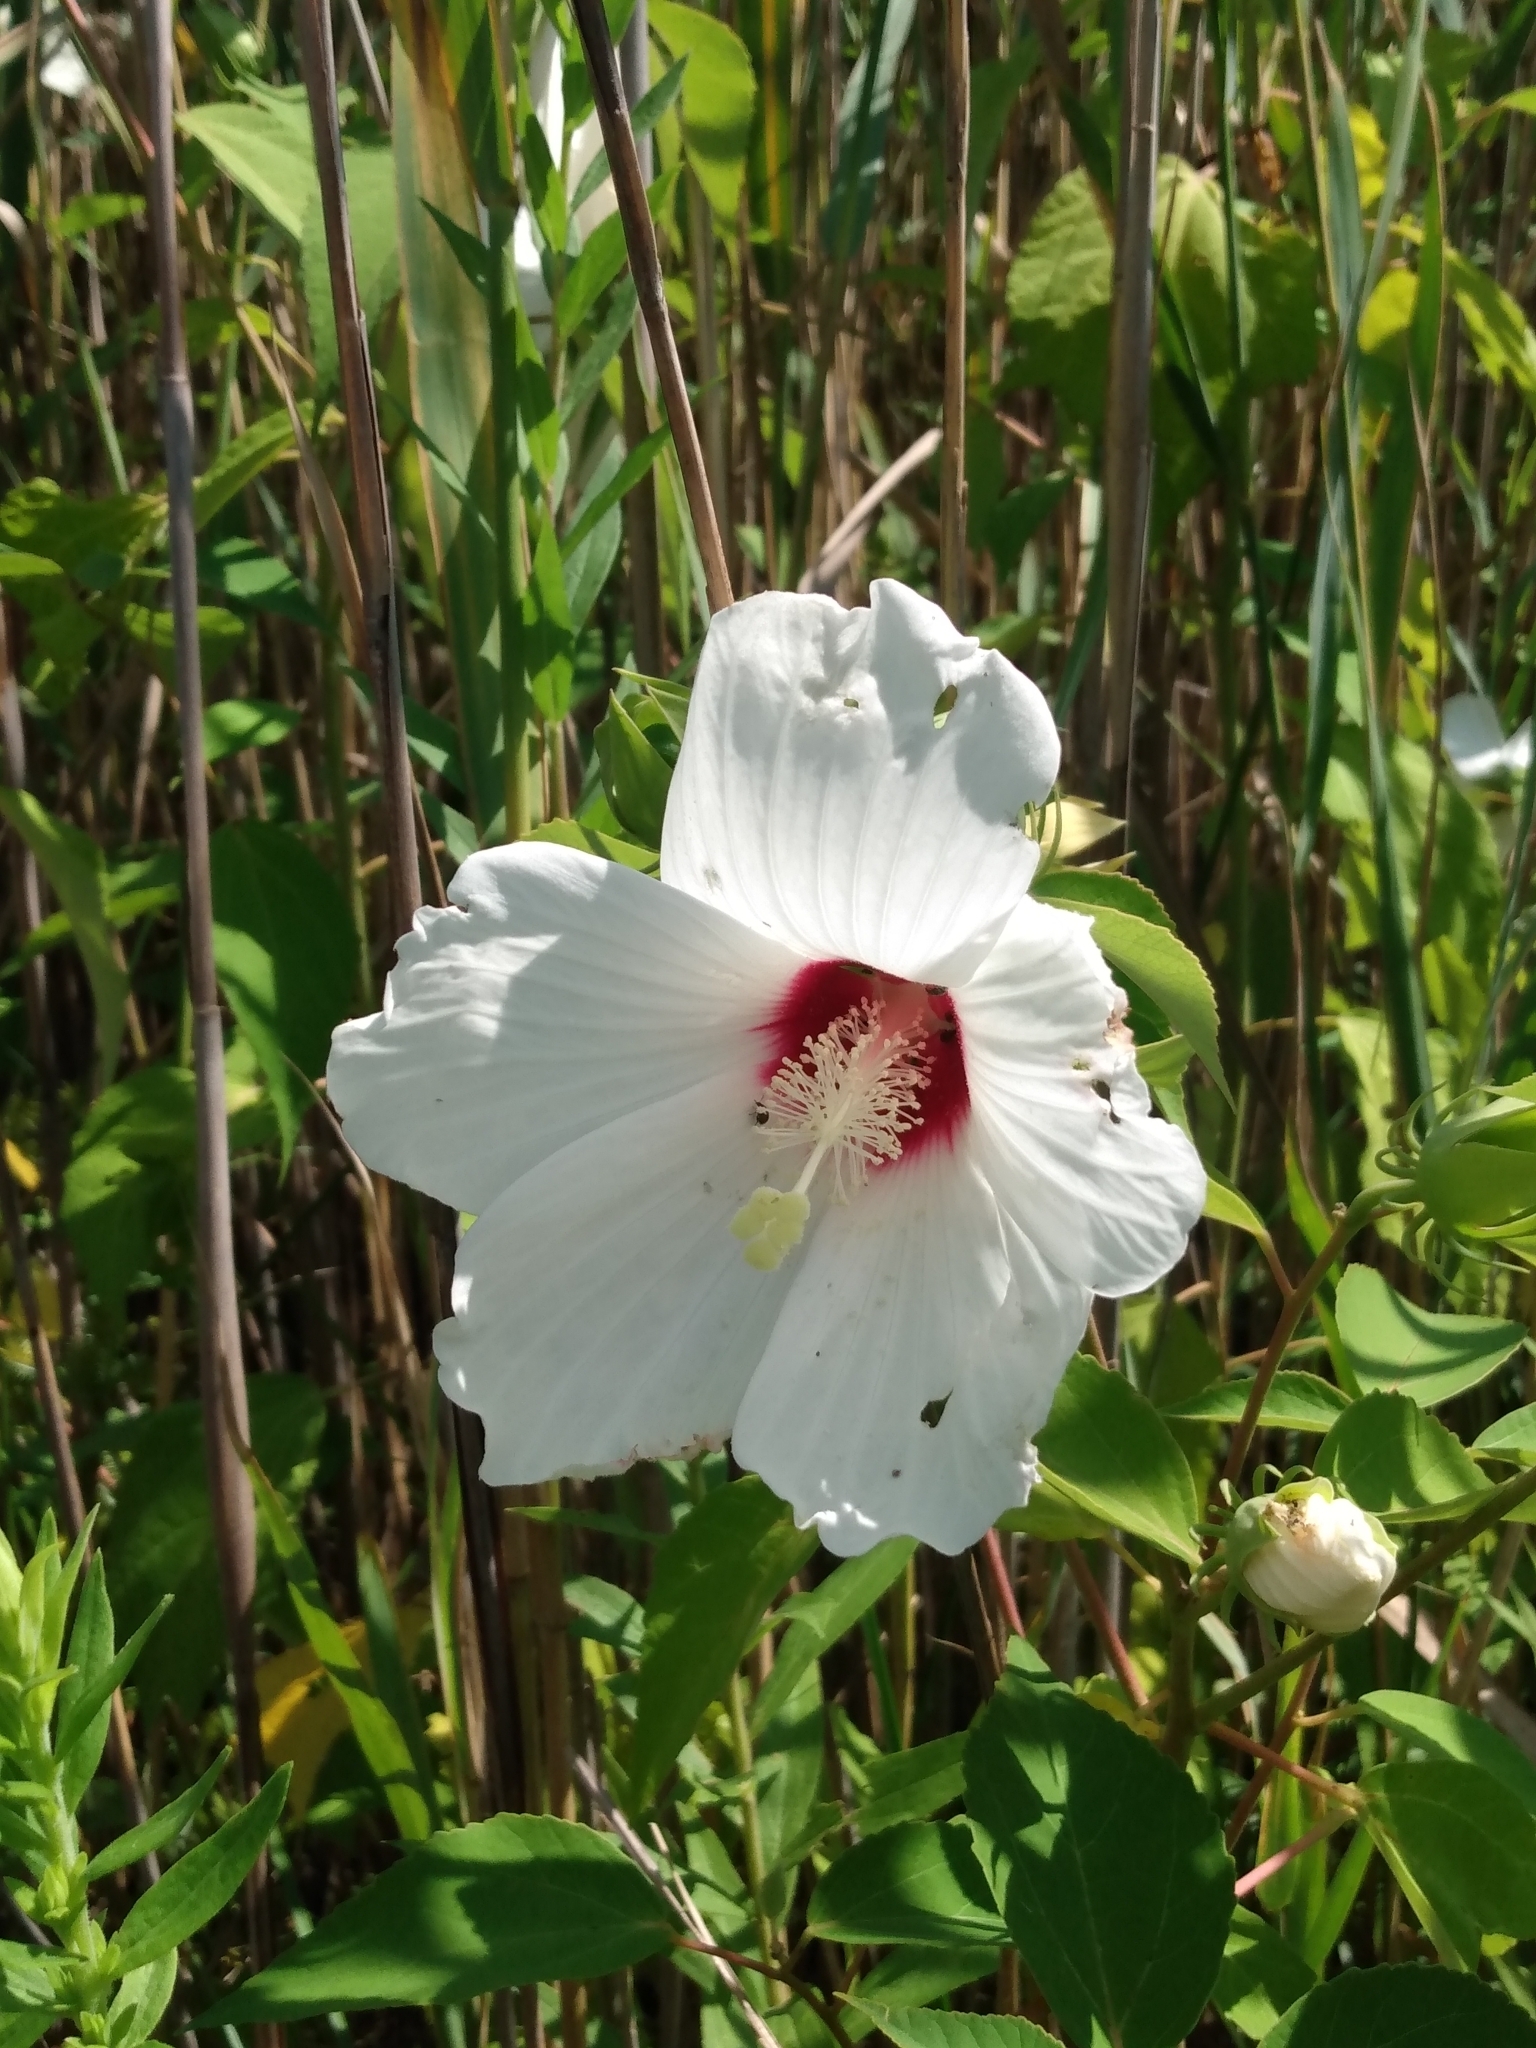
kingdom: Plantae
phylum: Tracheophyta
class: Magnoliopsida
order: Malvales
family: Malvaceae
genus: Hibiscus
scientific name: Hibiscus moscheutos
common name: Common rose-mallow
